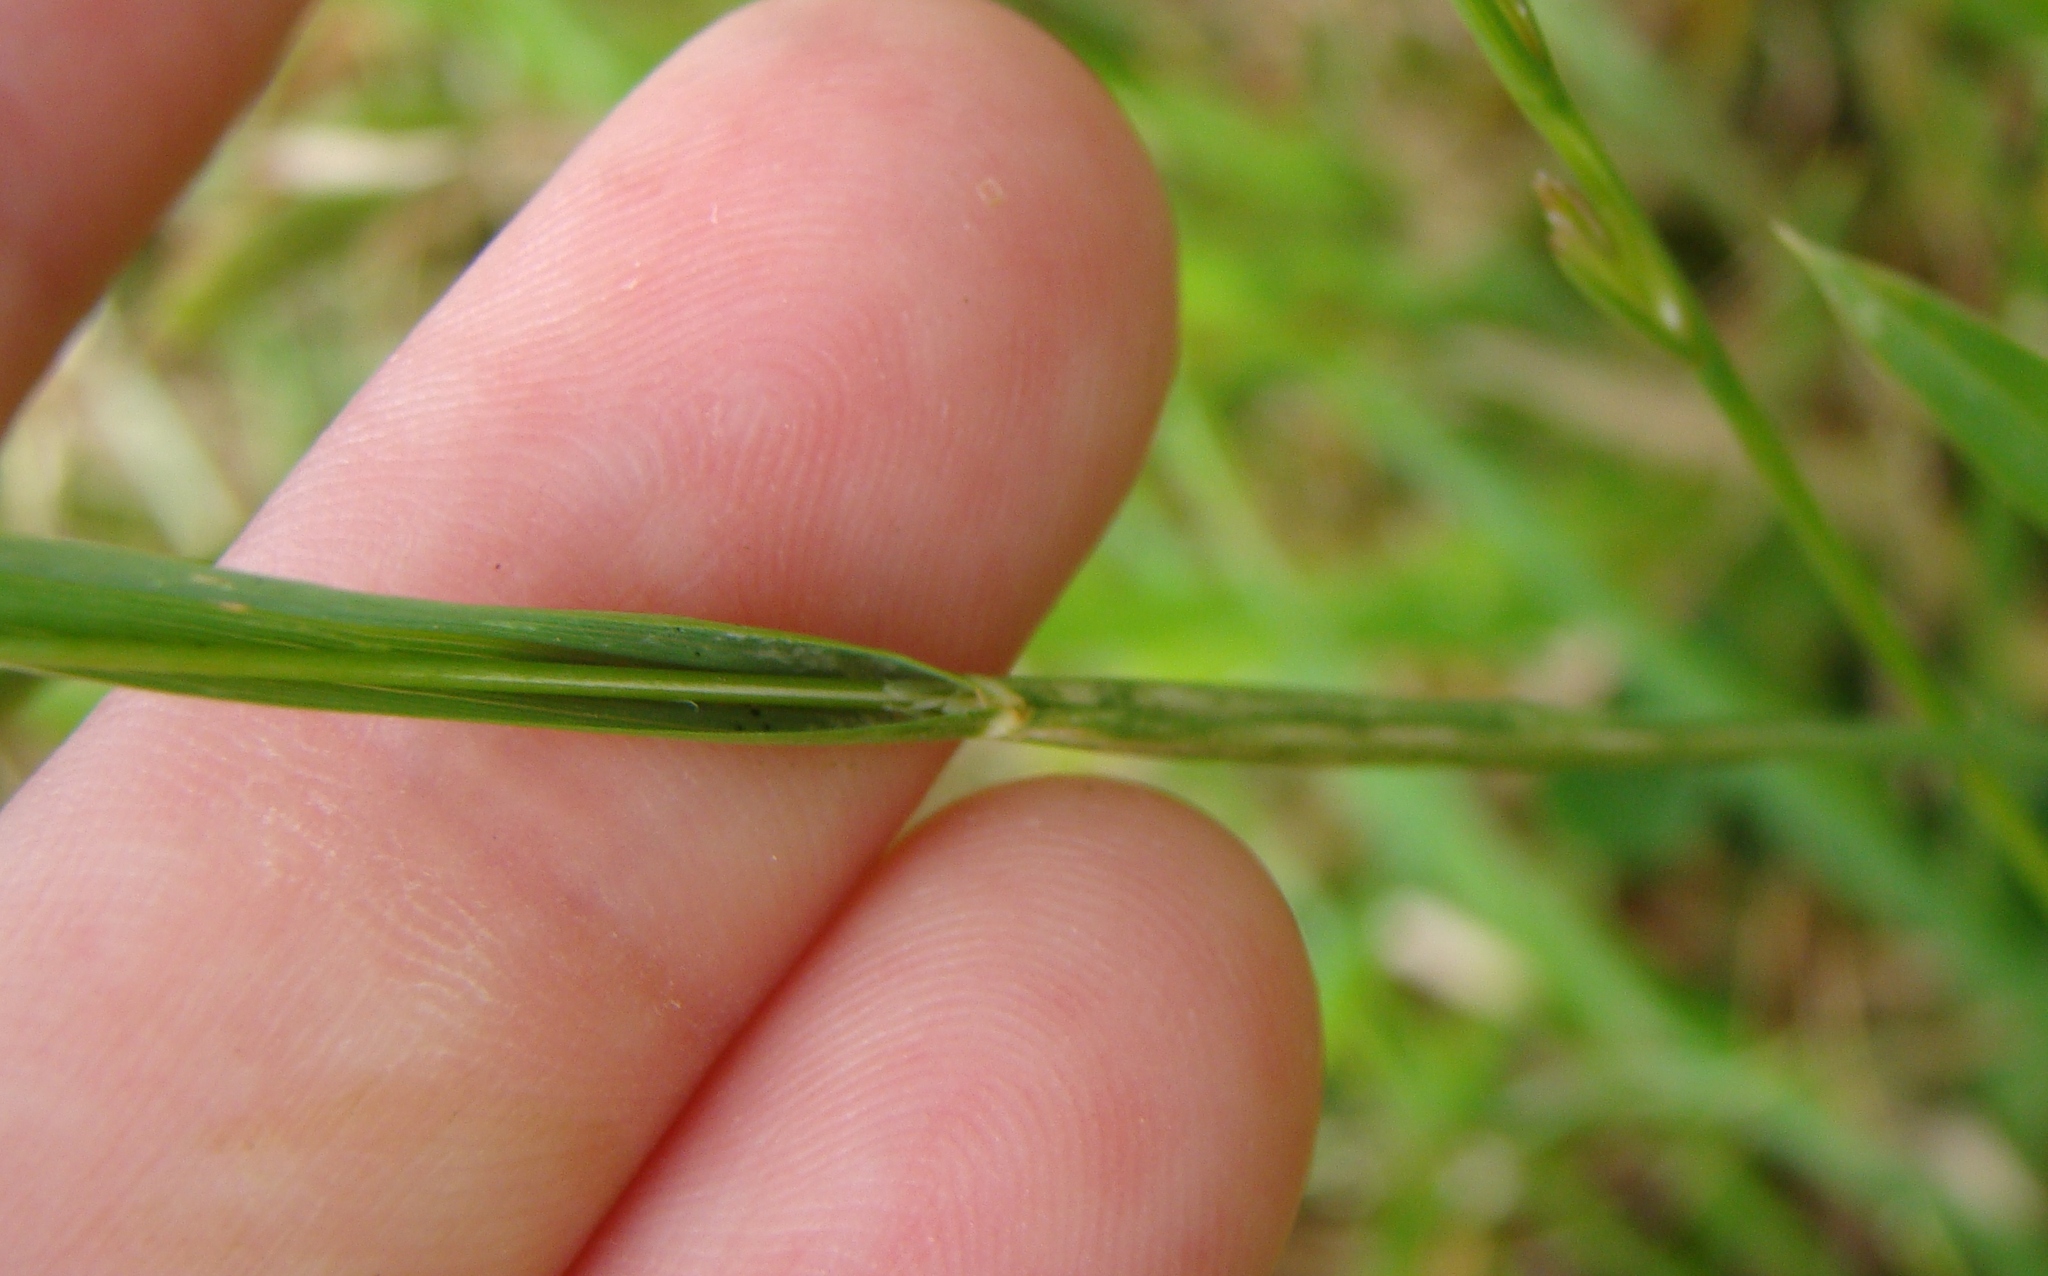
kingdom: Plantae
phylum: Tracheophyta
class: Liliopsida
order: Poales
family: Poaceae
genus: Cynosurus
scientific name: Cynosurus echinatus
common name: Rough dog's-tail
